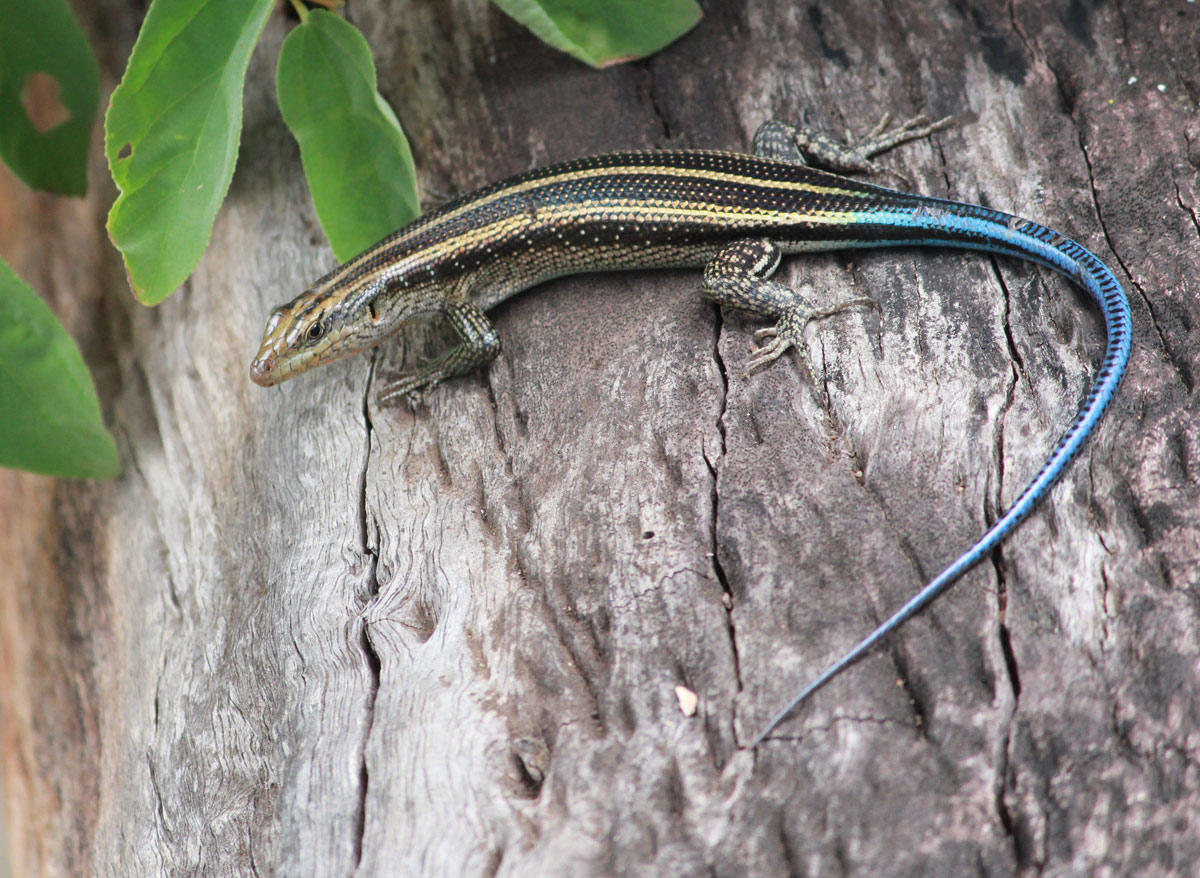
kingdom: Animalia
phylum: Chordata
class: Squamata
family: Scincidae
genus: Trachylepis
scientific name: Trachylepis margaritifera
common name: Rainbow skink
